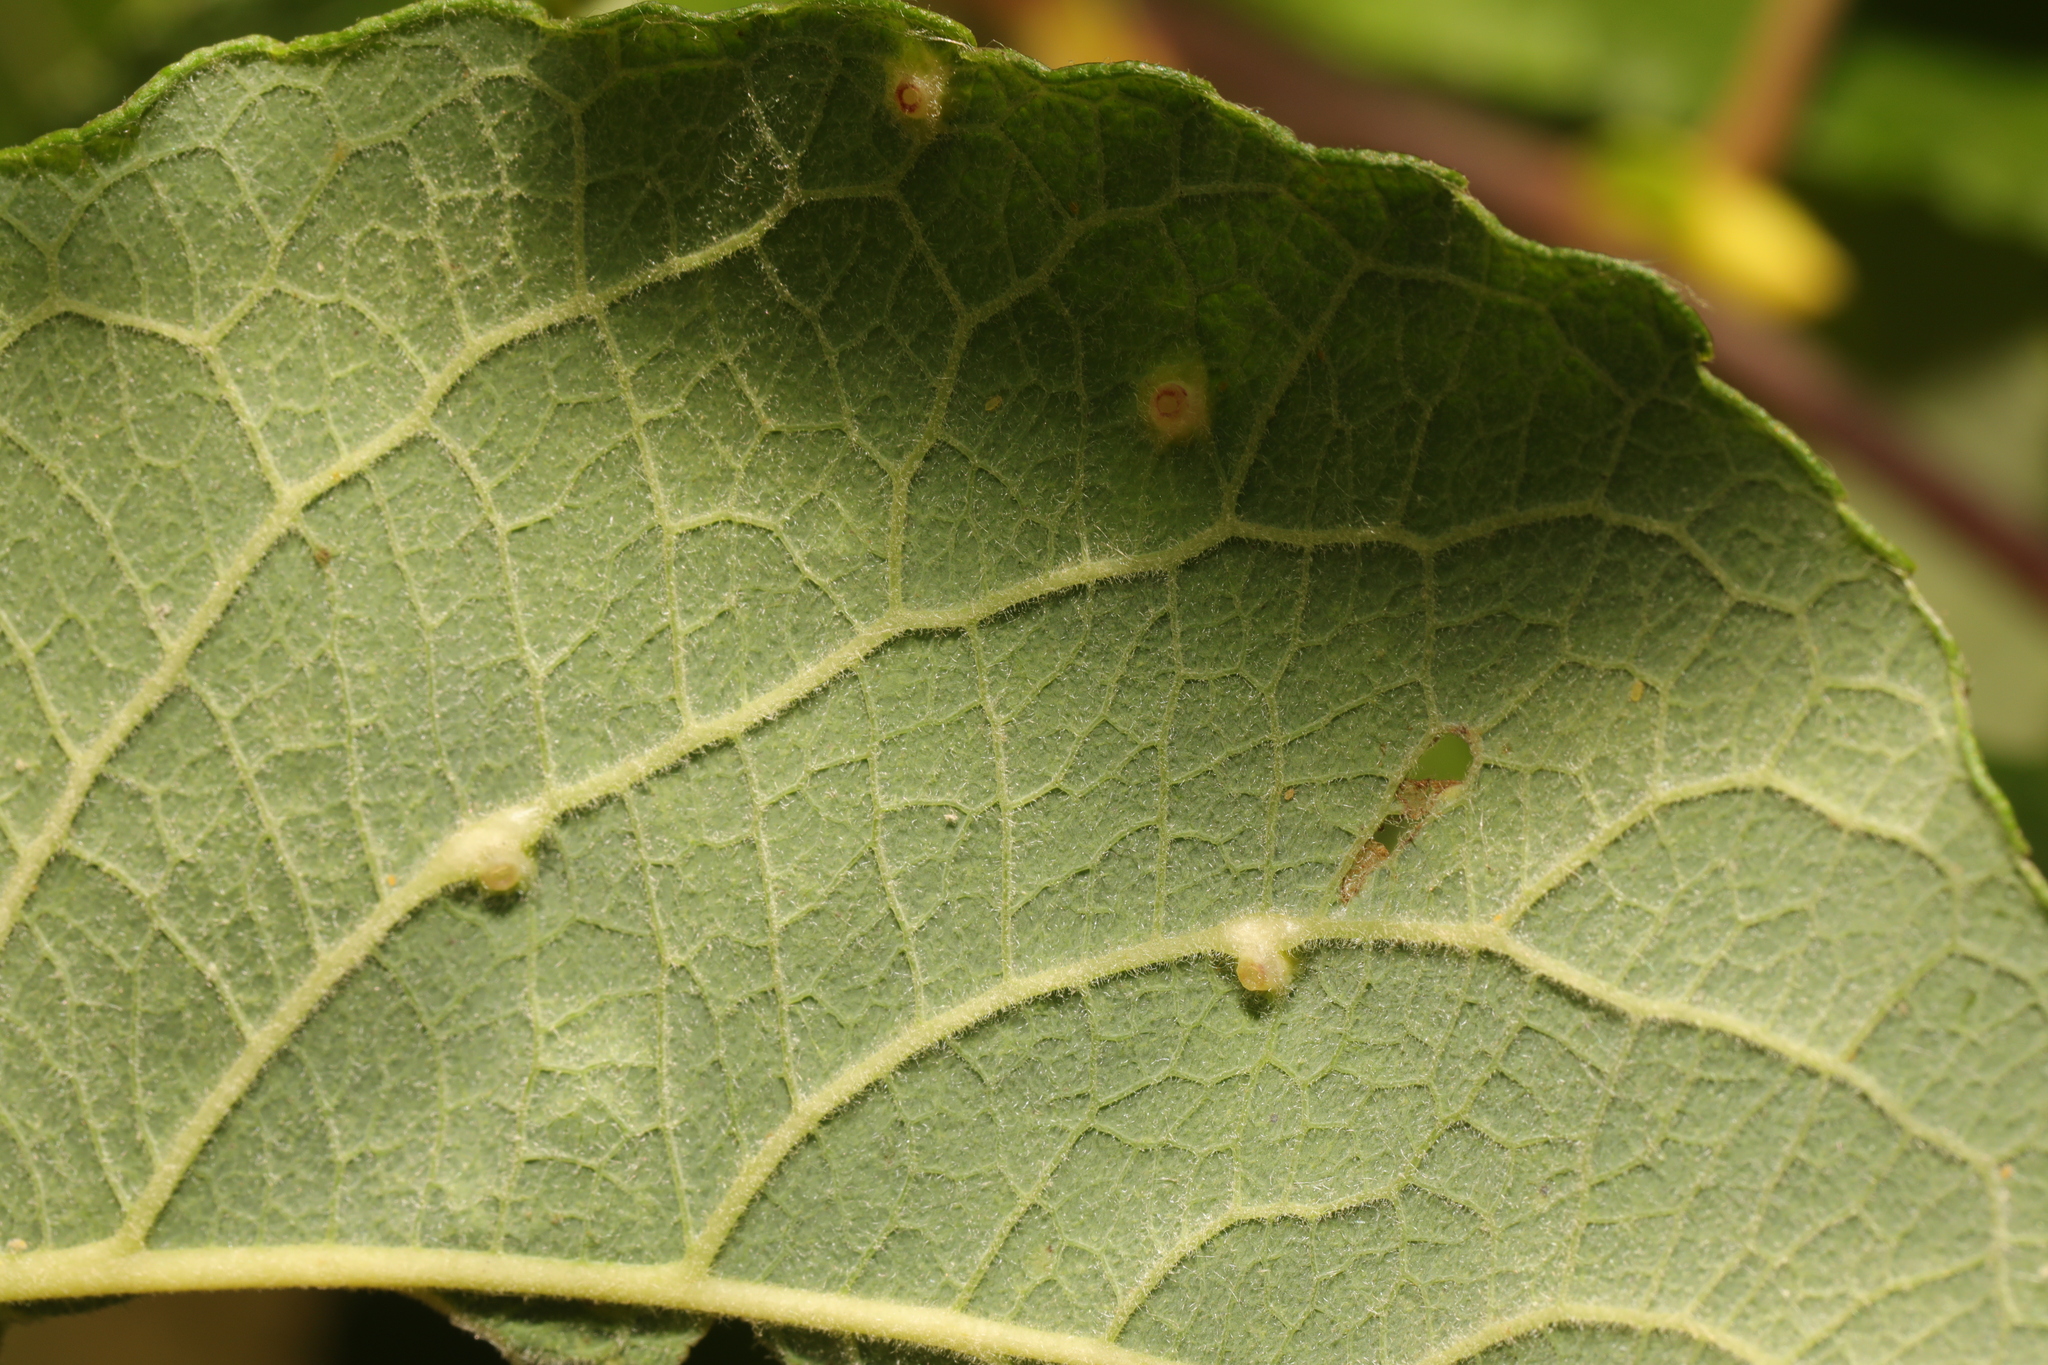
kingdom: Animalia
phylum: Arthropoda
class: Insecta
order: Diptera
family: Cecidomyiidae
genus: Iteomyia
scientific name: Iteomyia capreae
